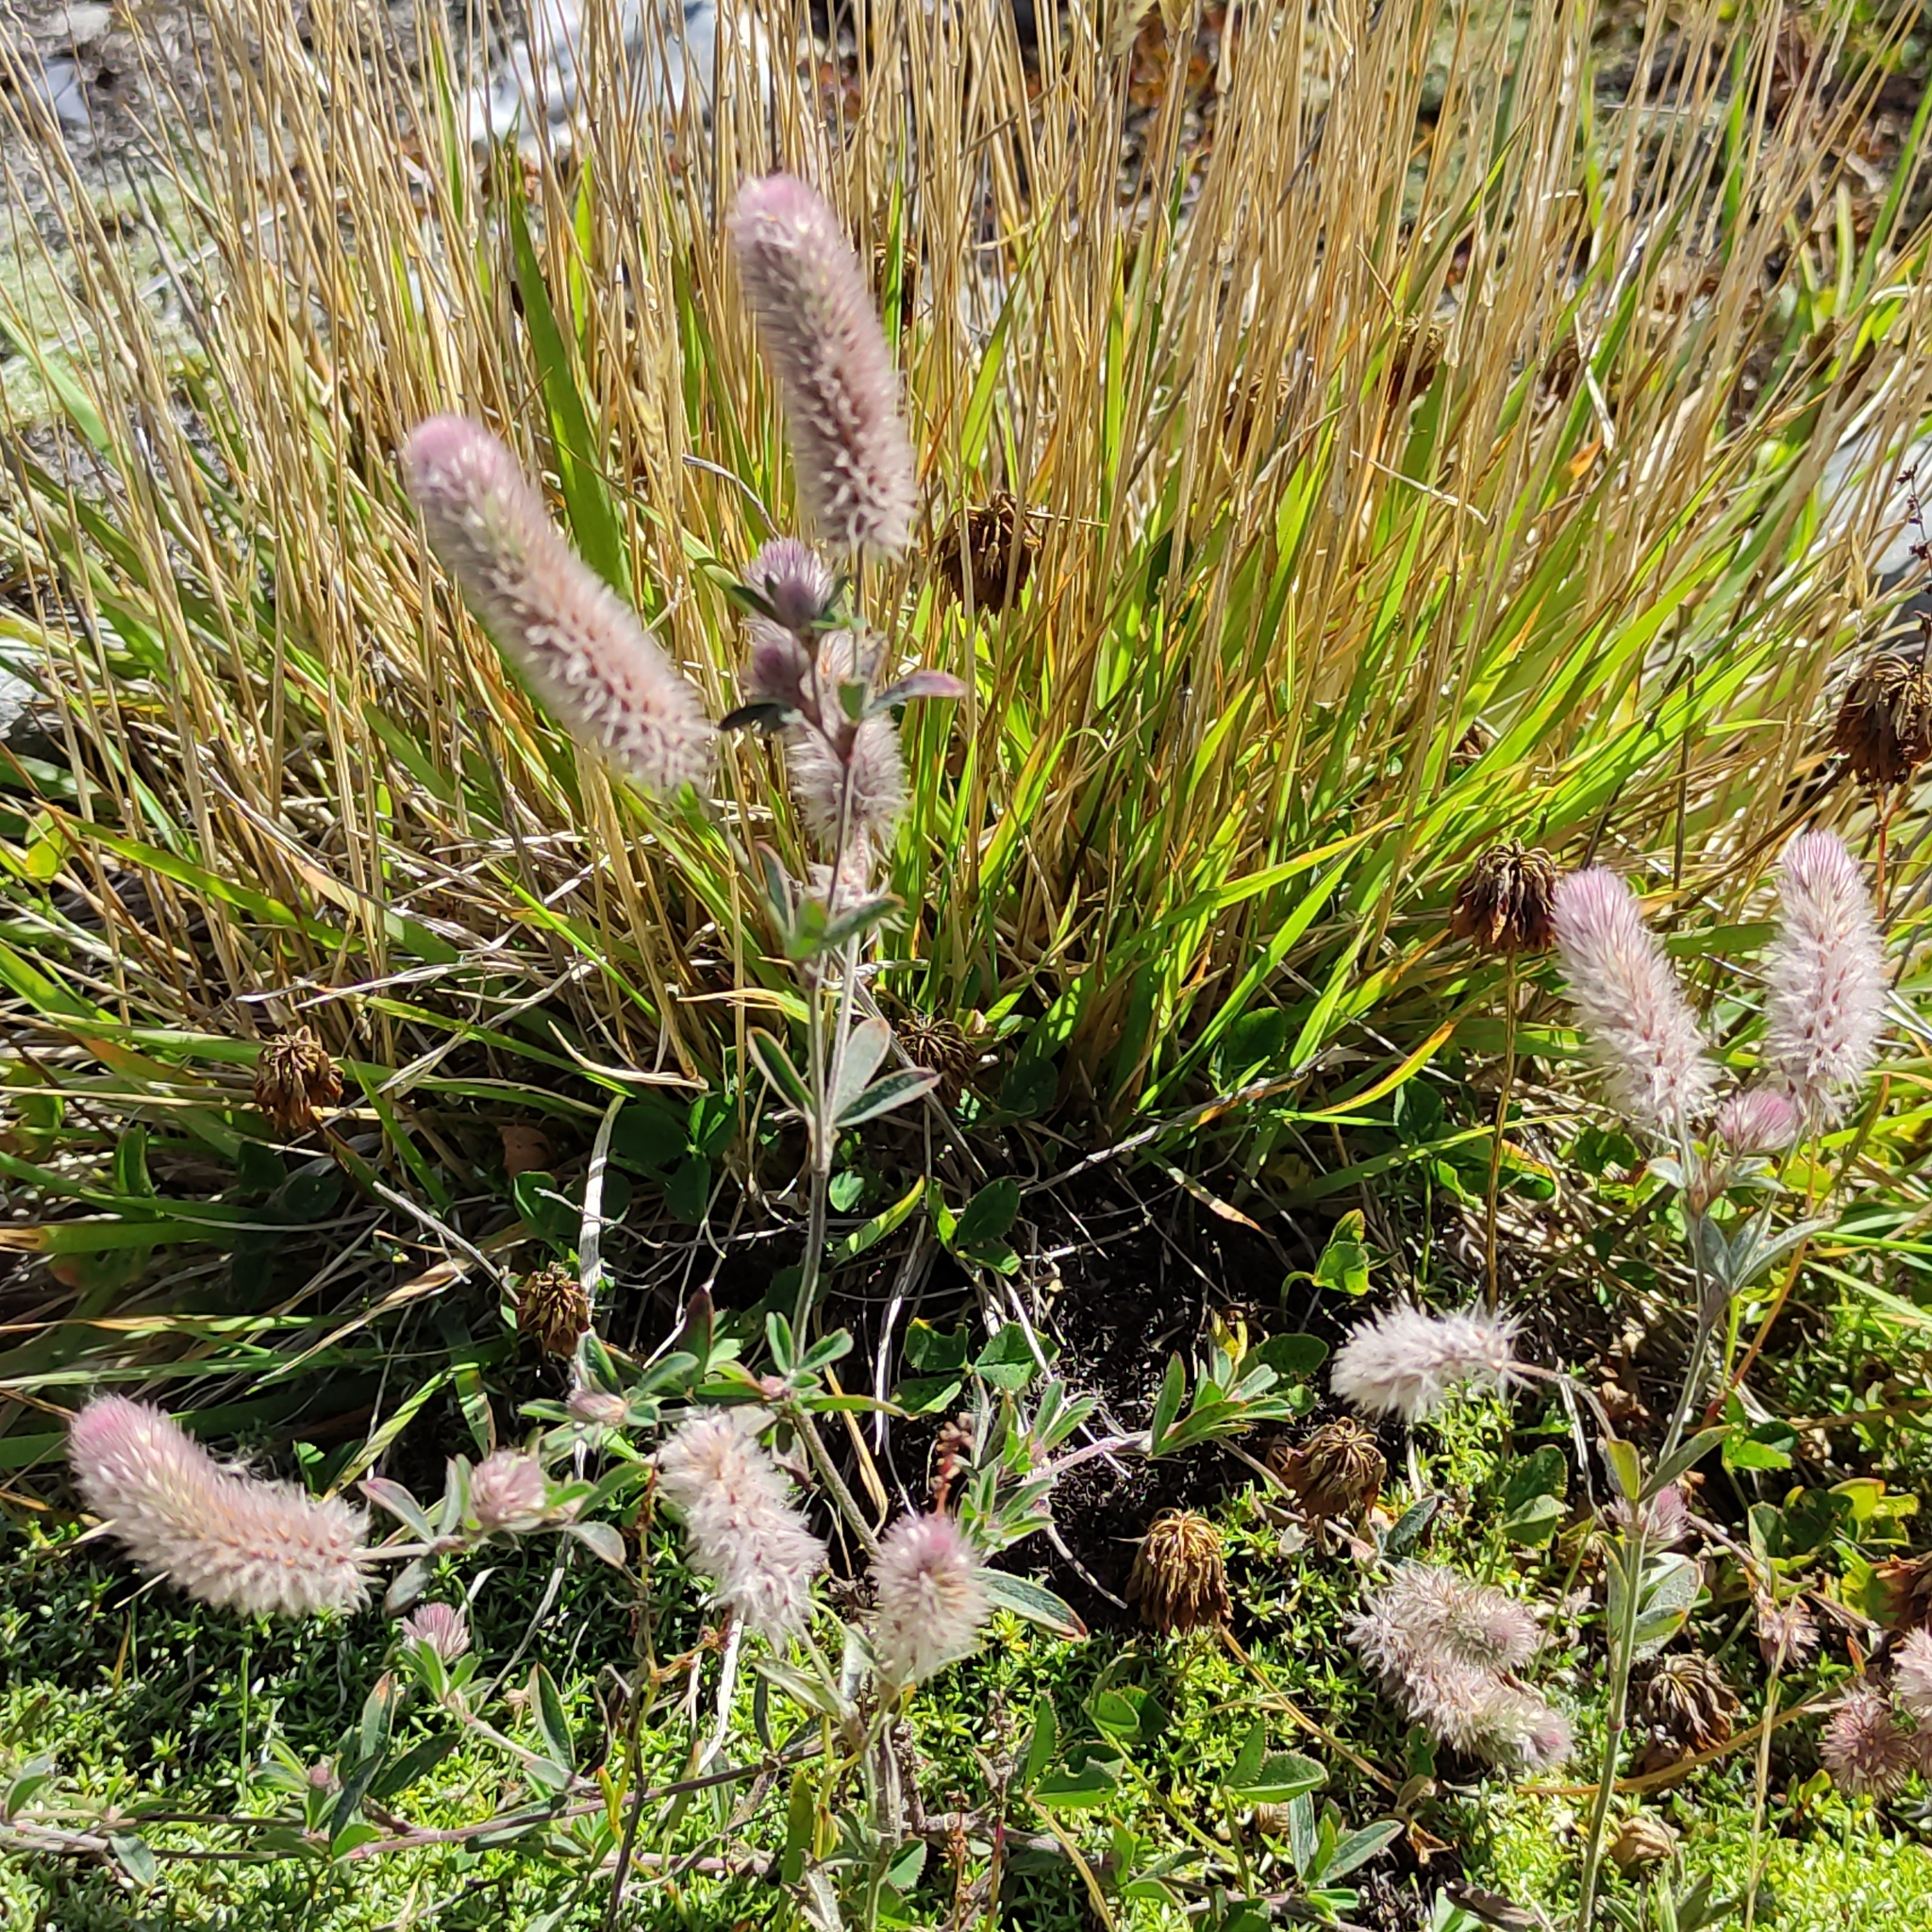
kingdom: Plantae
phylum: Tracheophyta
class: Magnoliopsida
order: Fabales
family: Fabaceae
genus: Trifolium
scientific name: Trifolium arvense
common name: Hare's-foot clover
